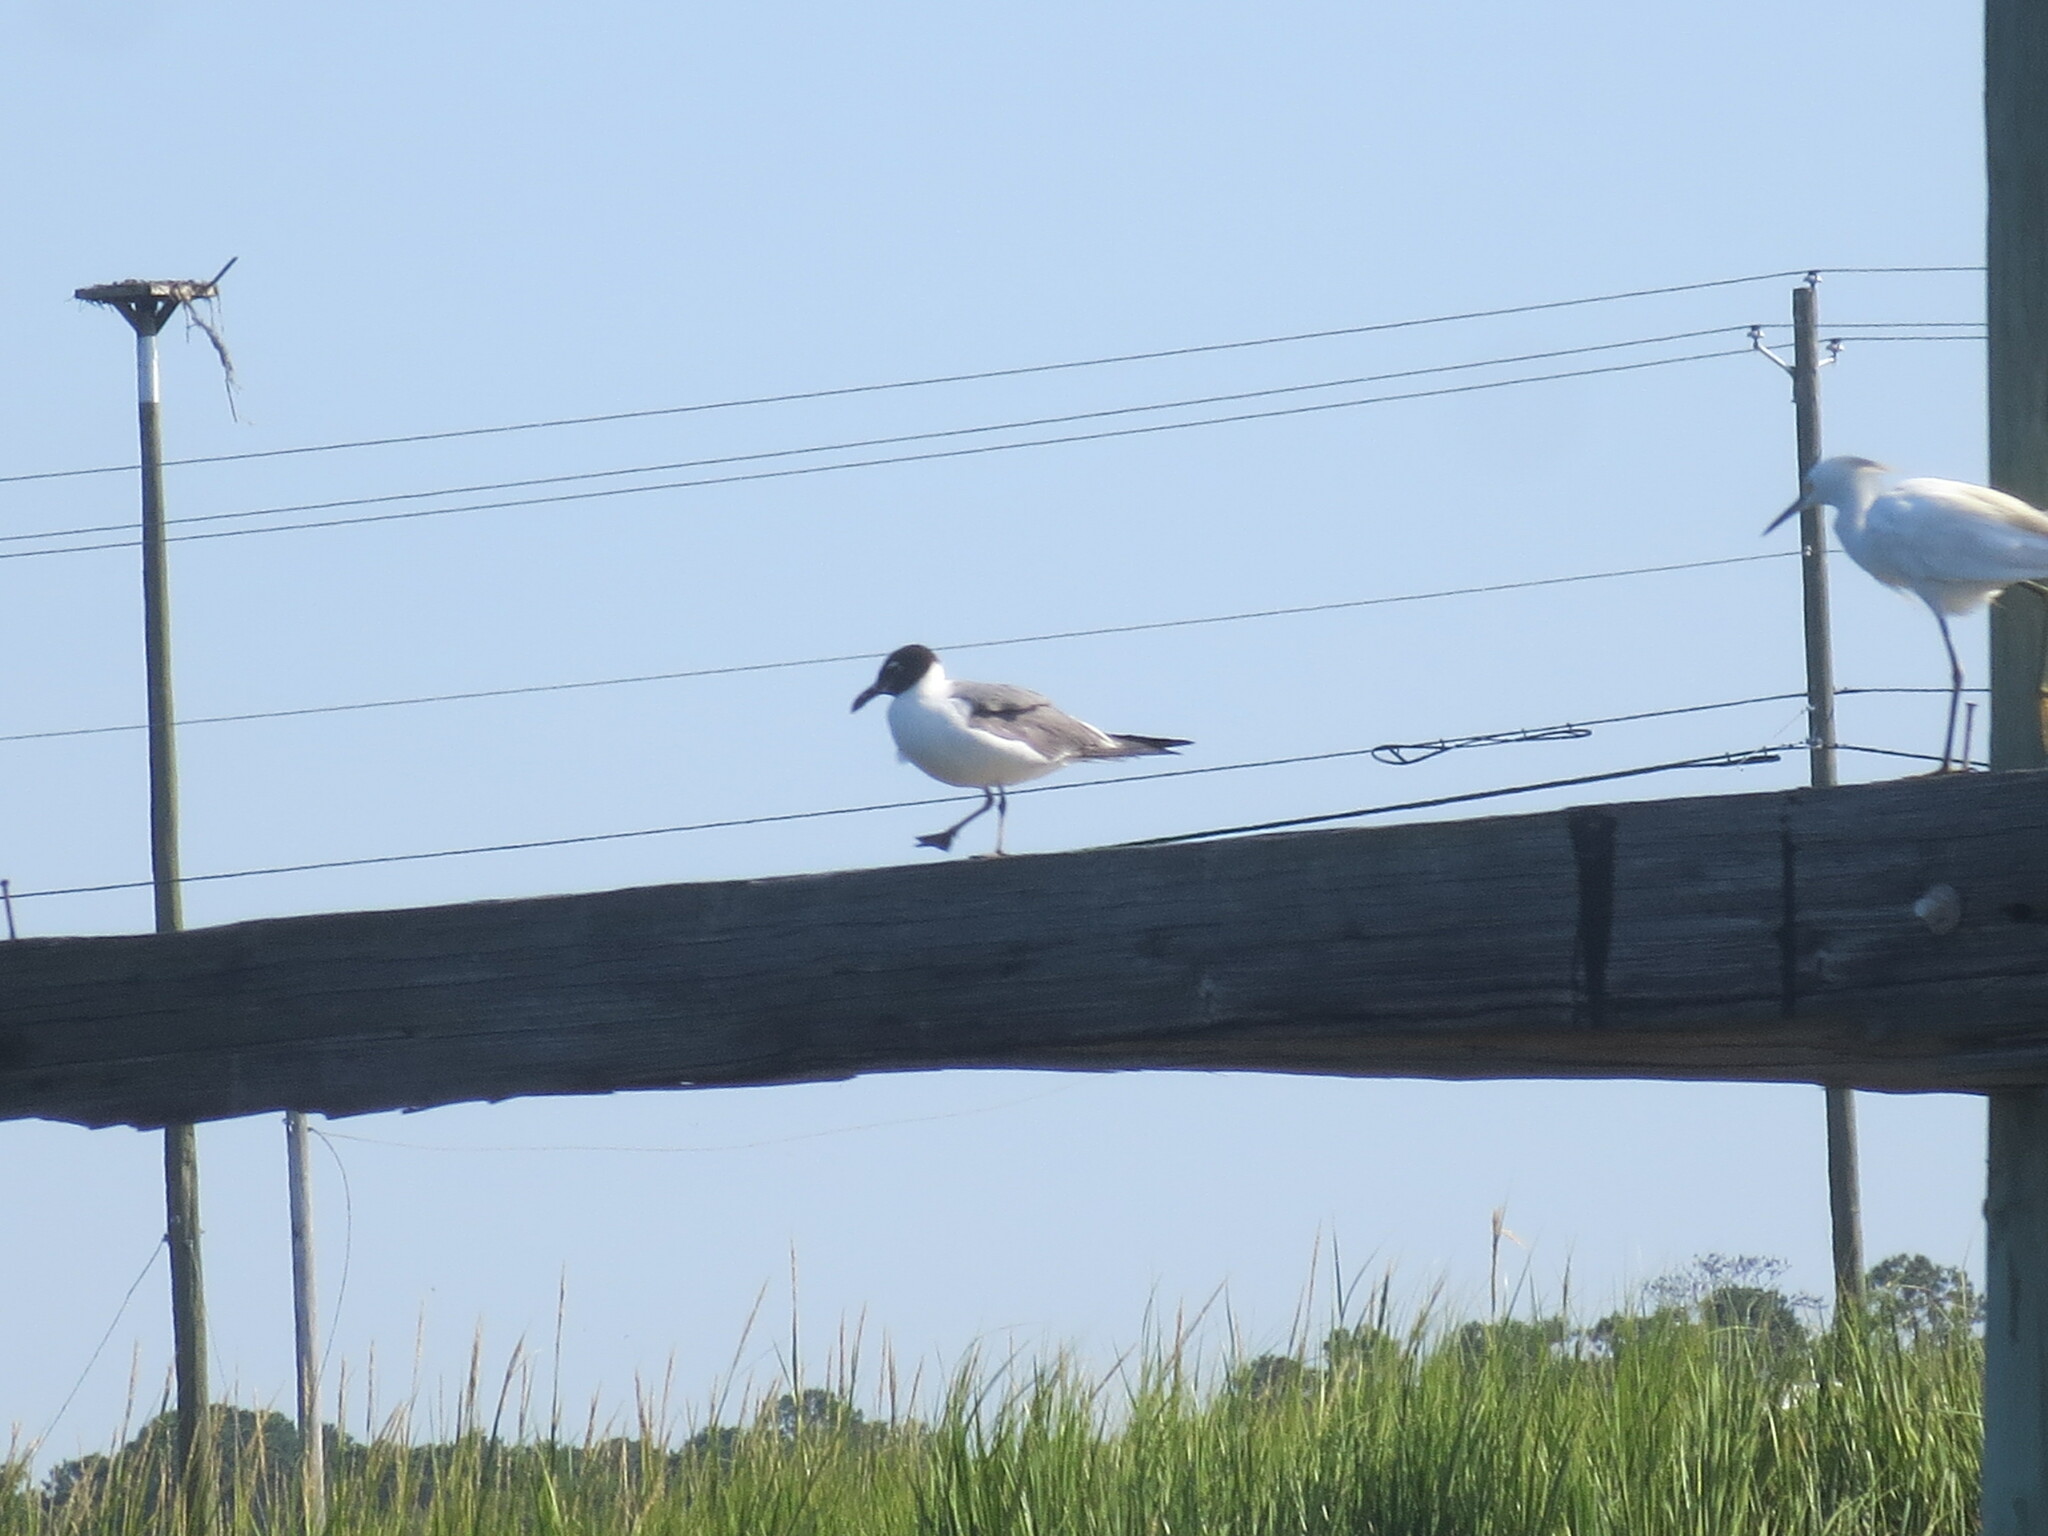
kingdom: Animalia
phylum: Chordata
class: Aves
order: Charadriiformes
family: Laridae
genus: Leucophaeus
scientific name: Leucophaeus atricilla
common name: Laughing gull
